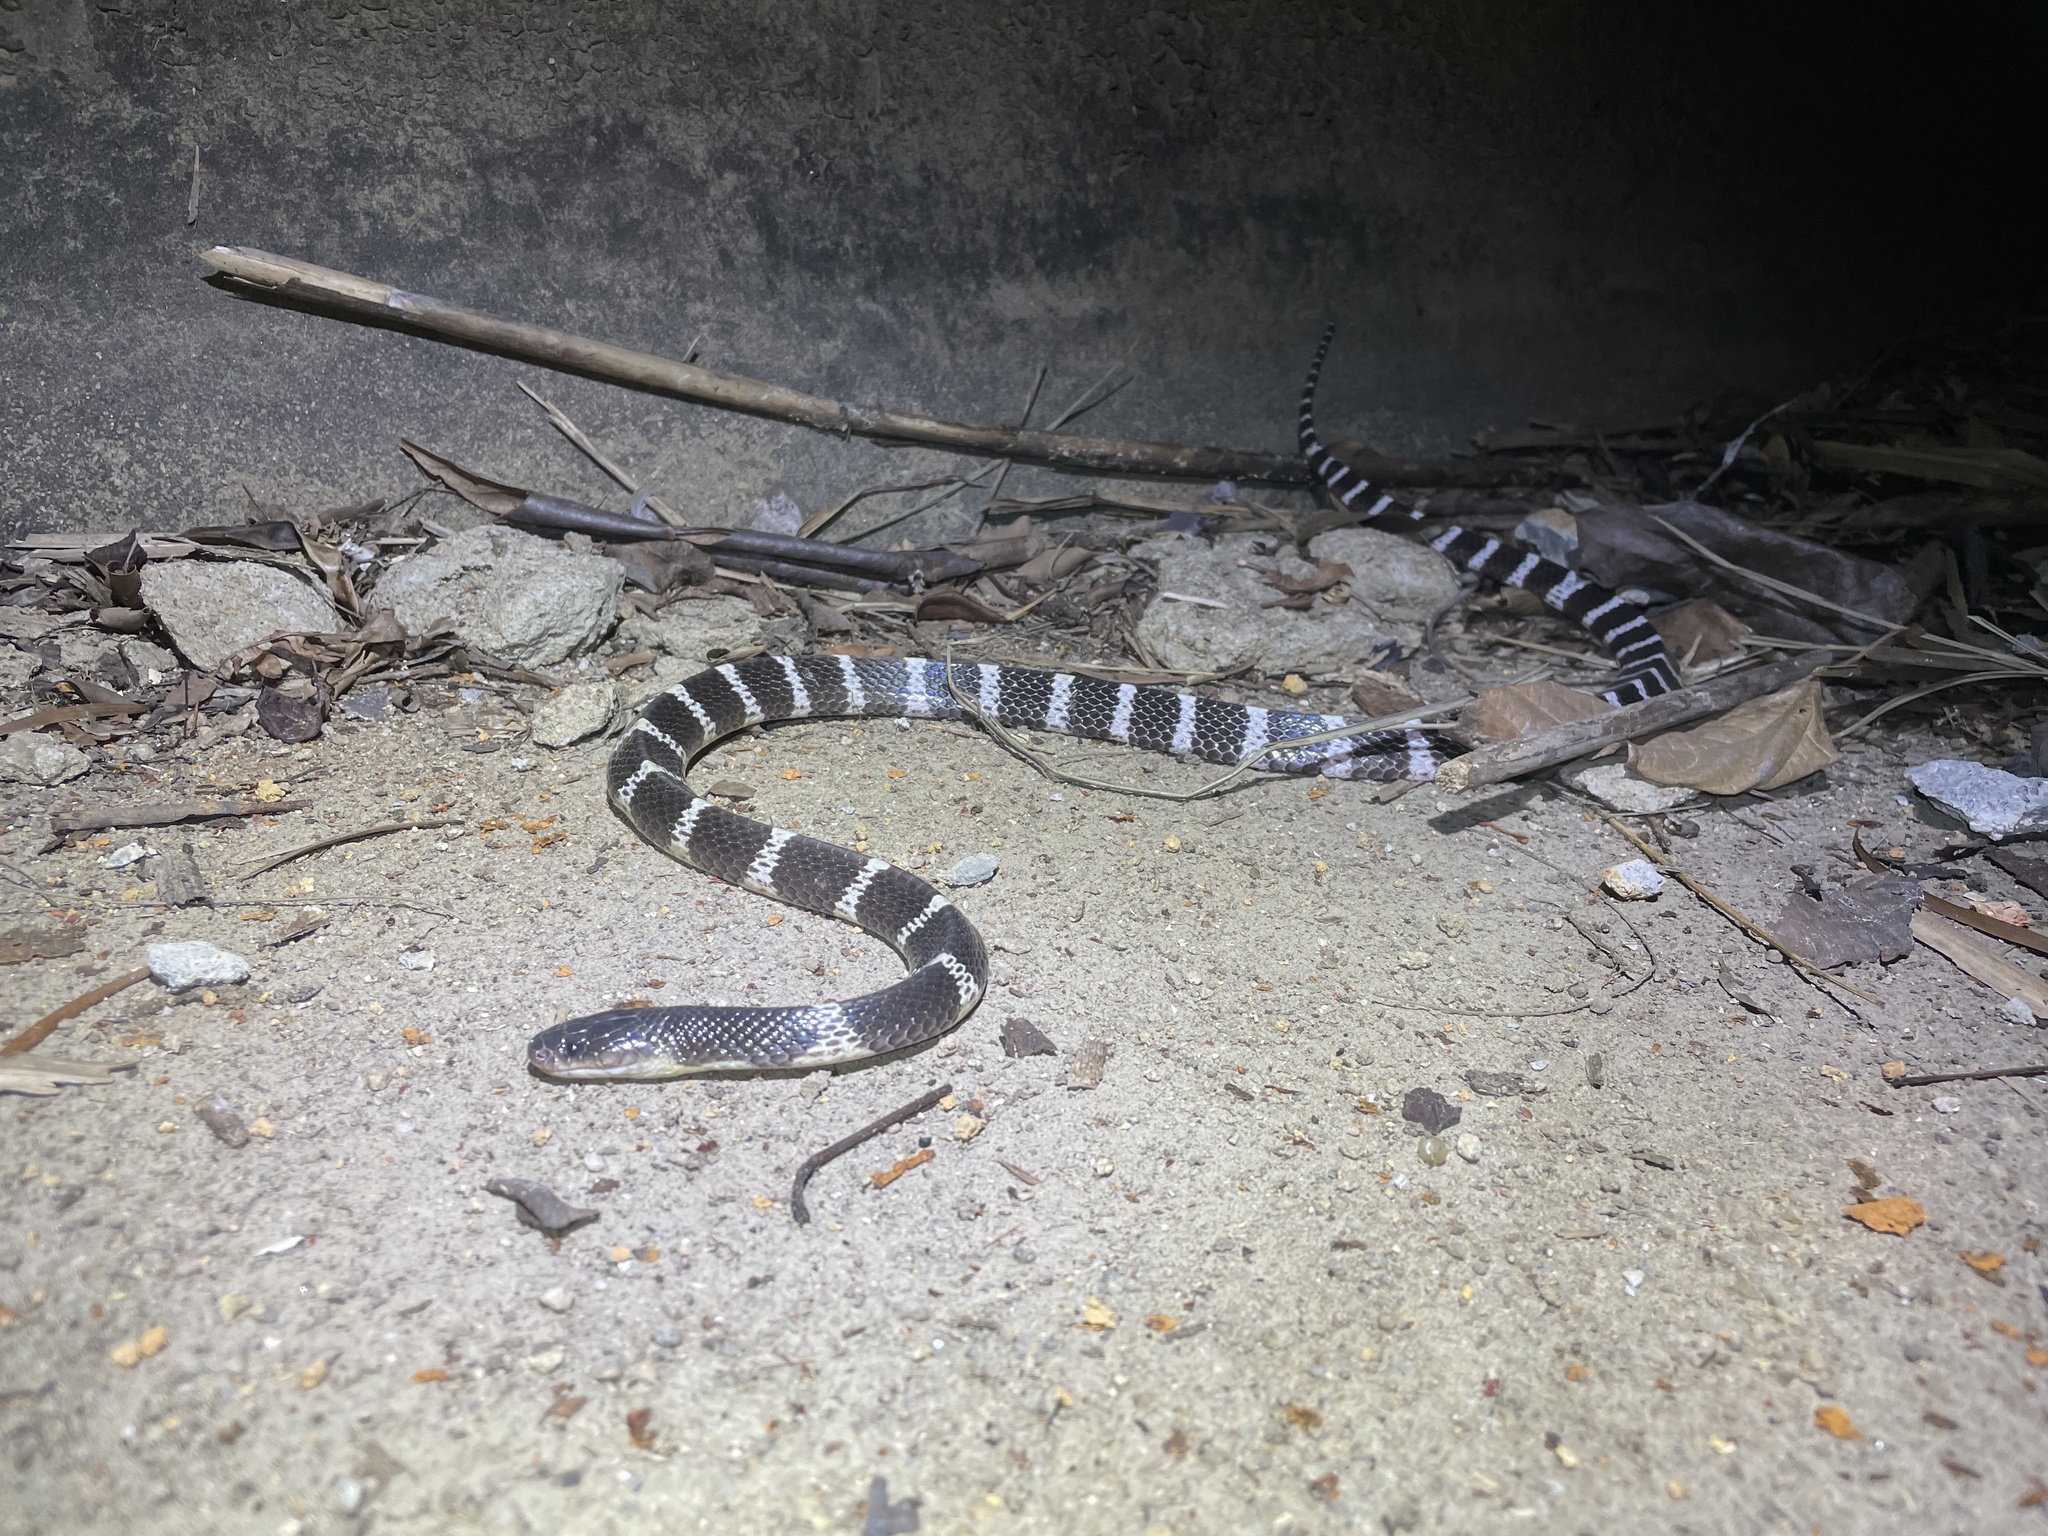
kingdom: Animalia
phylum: Chordata
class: Squamata
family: Elapidae
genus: Bungarus
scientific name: Bungarus multicinctus
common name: Many-banded krait
